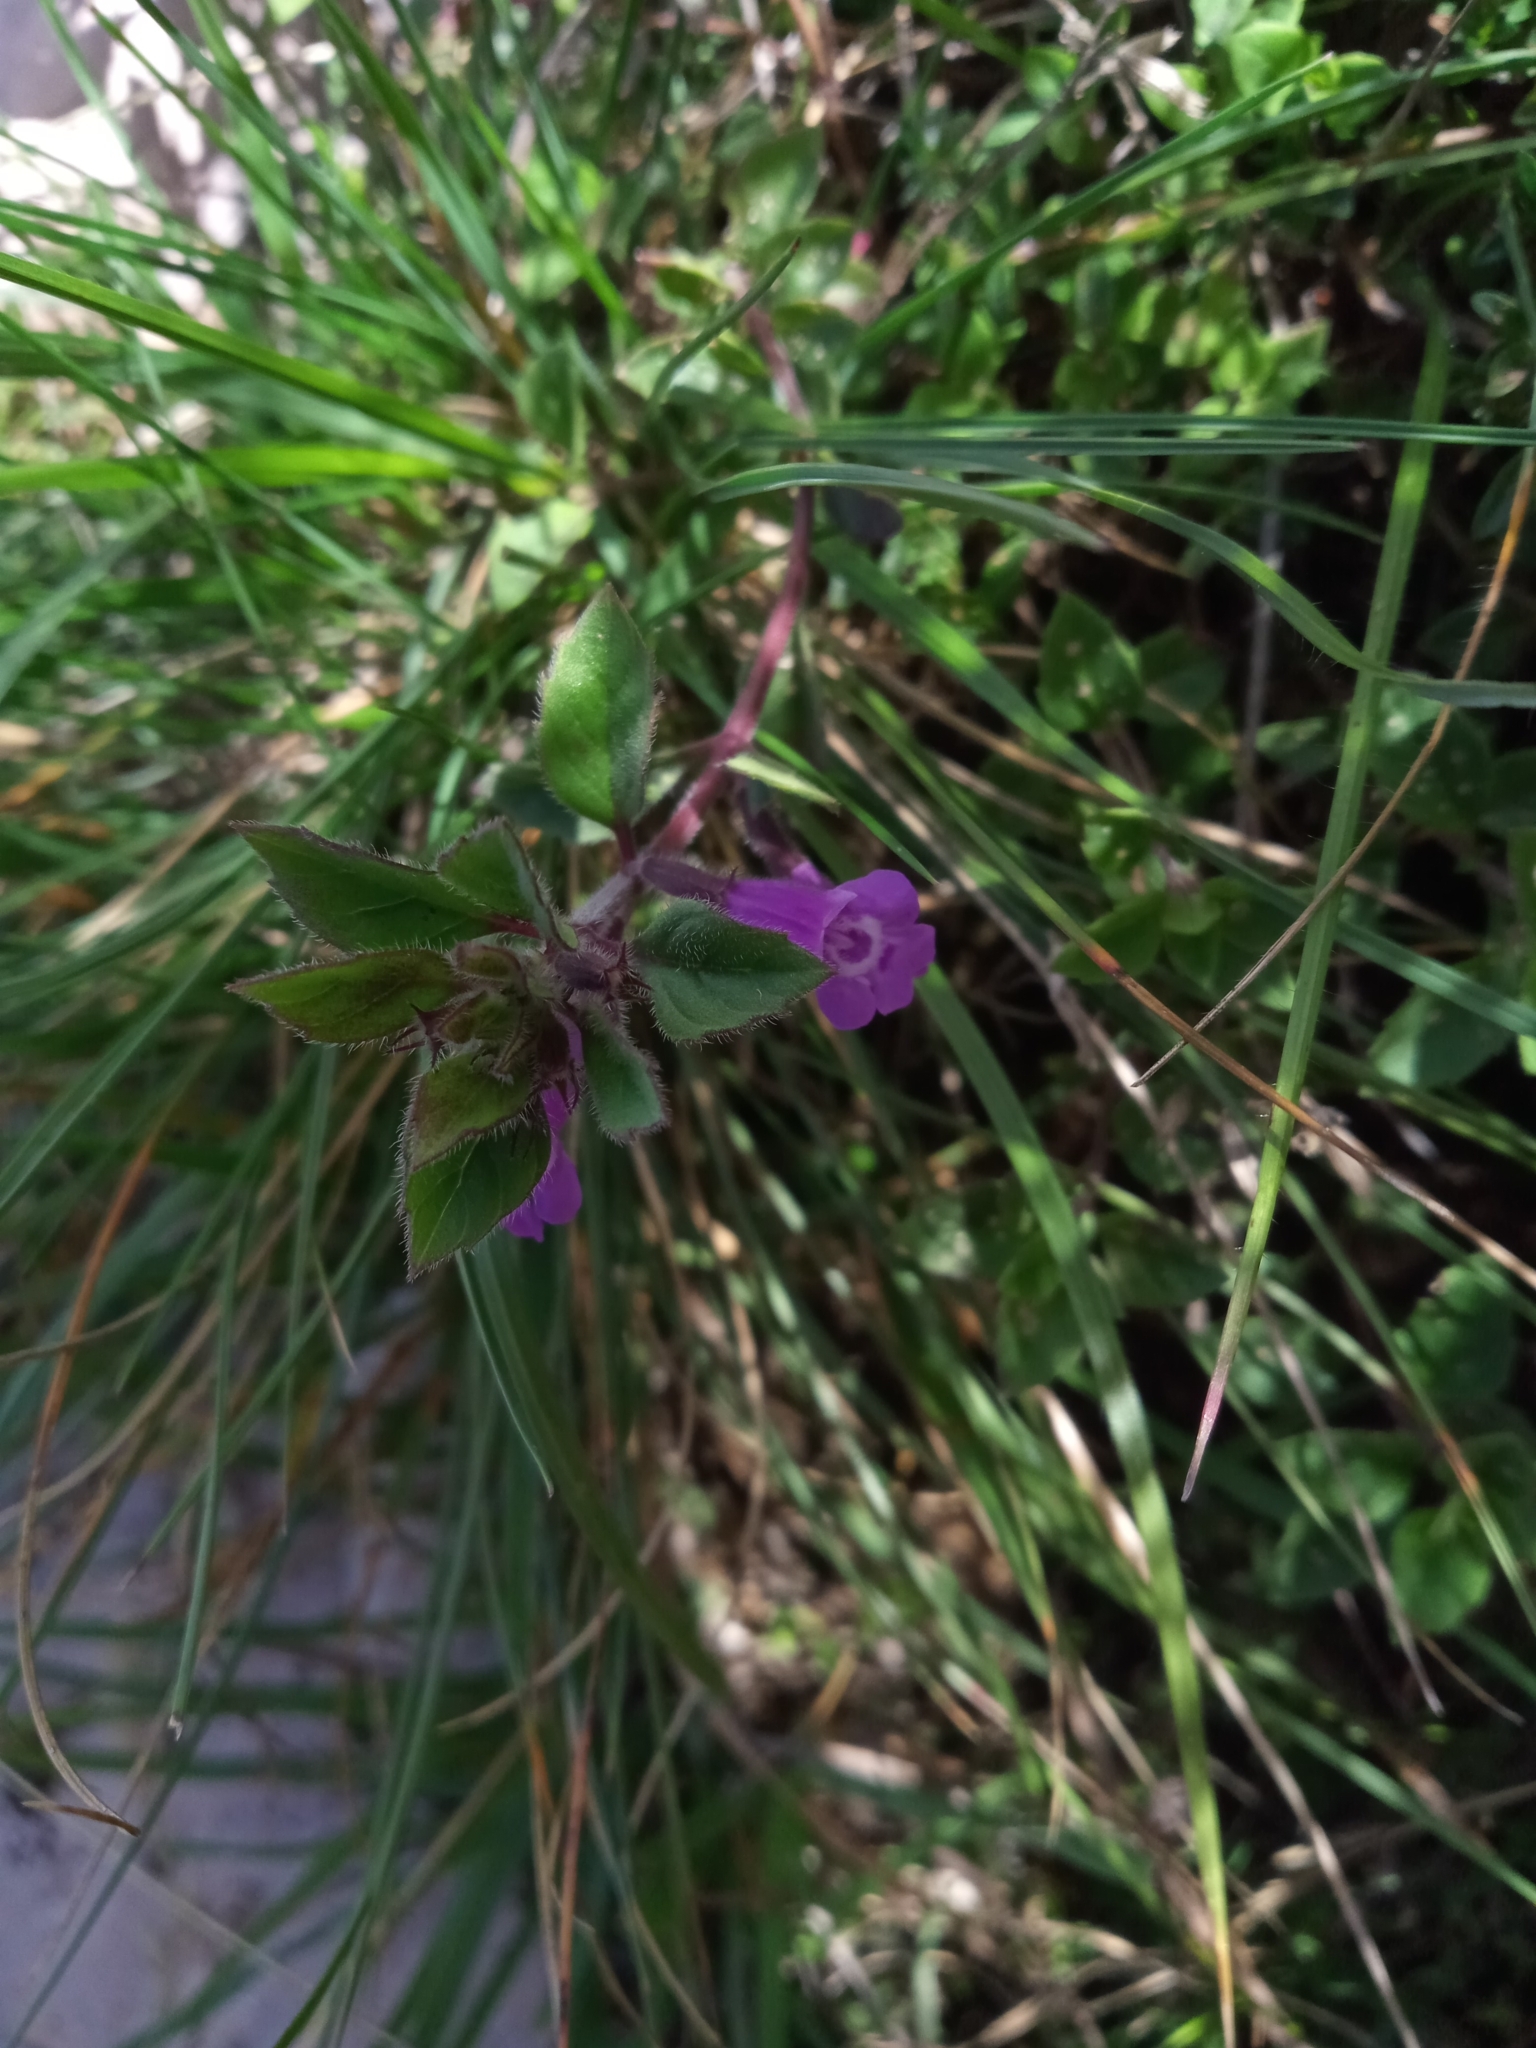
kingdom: Plantae
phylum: Tracheophyta
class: Magnoliopsida
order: Lamiales
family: Lamiaceae
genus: Clinopodium
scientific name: Clinopodium alpinum
